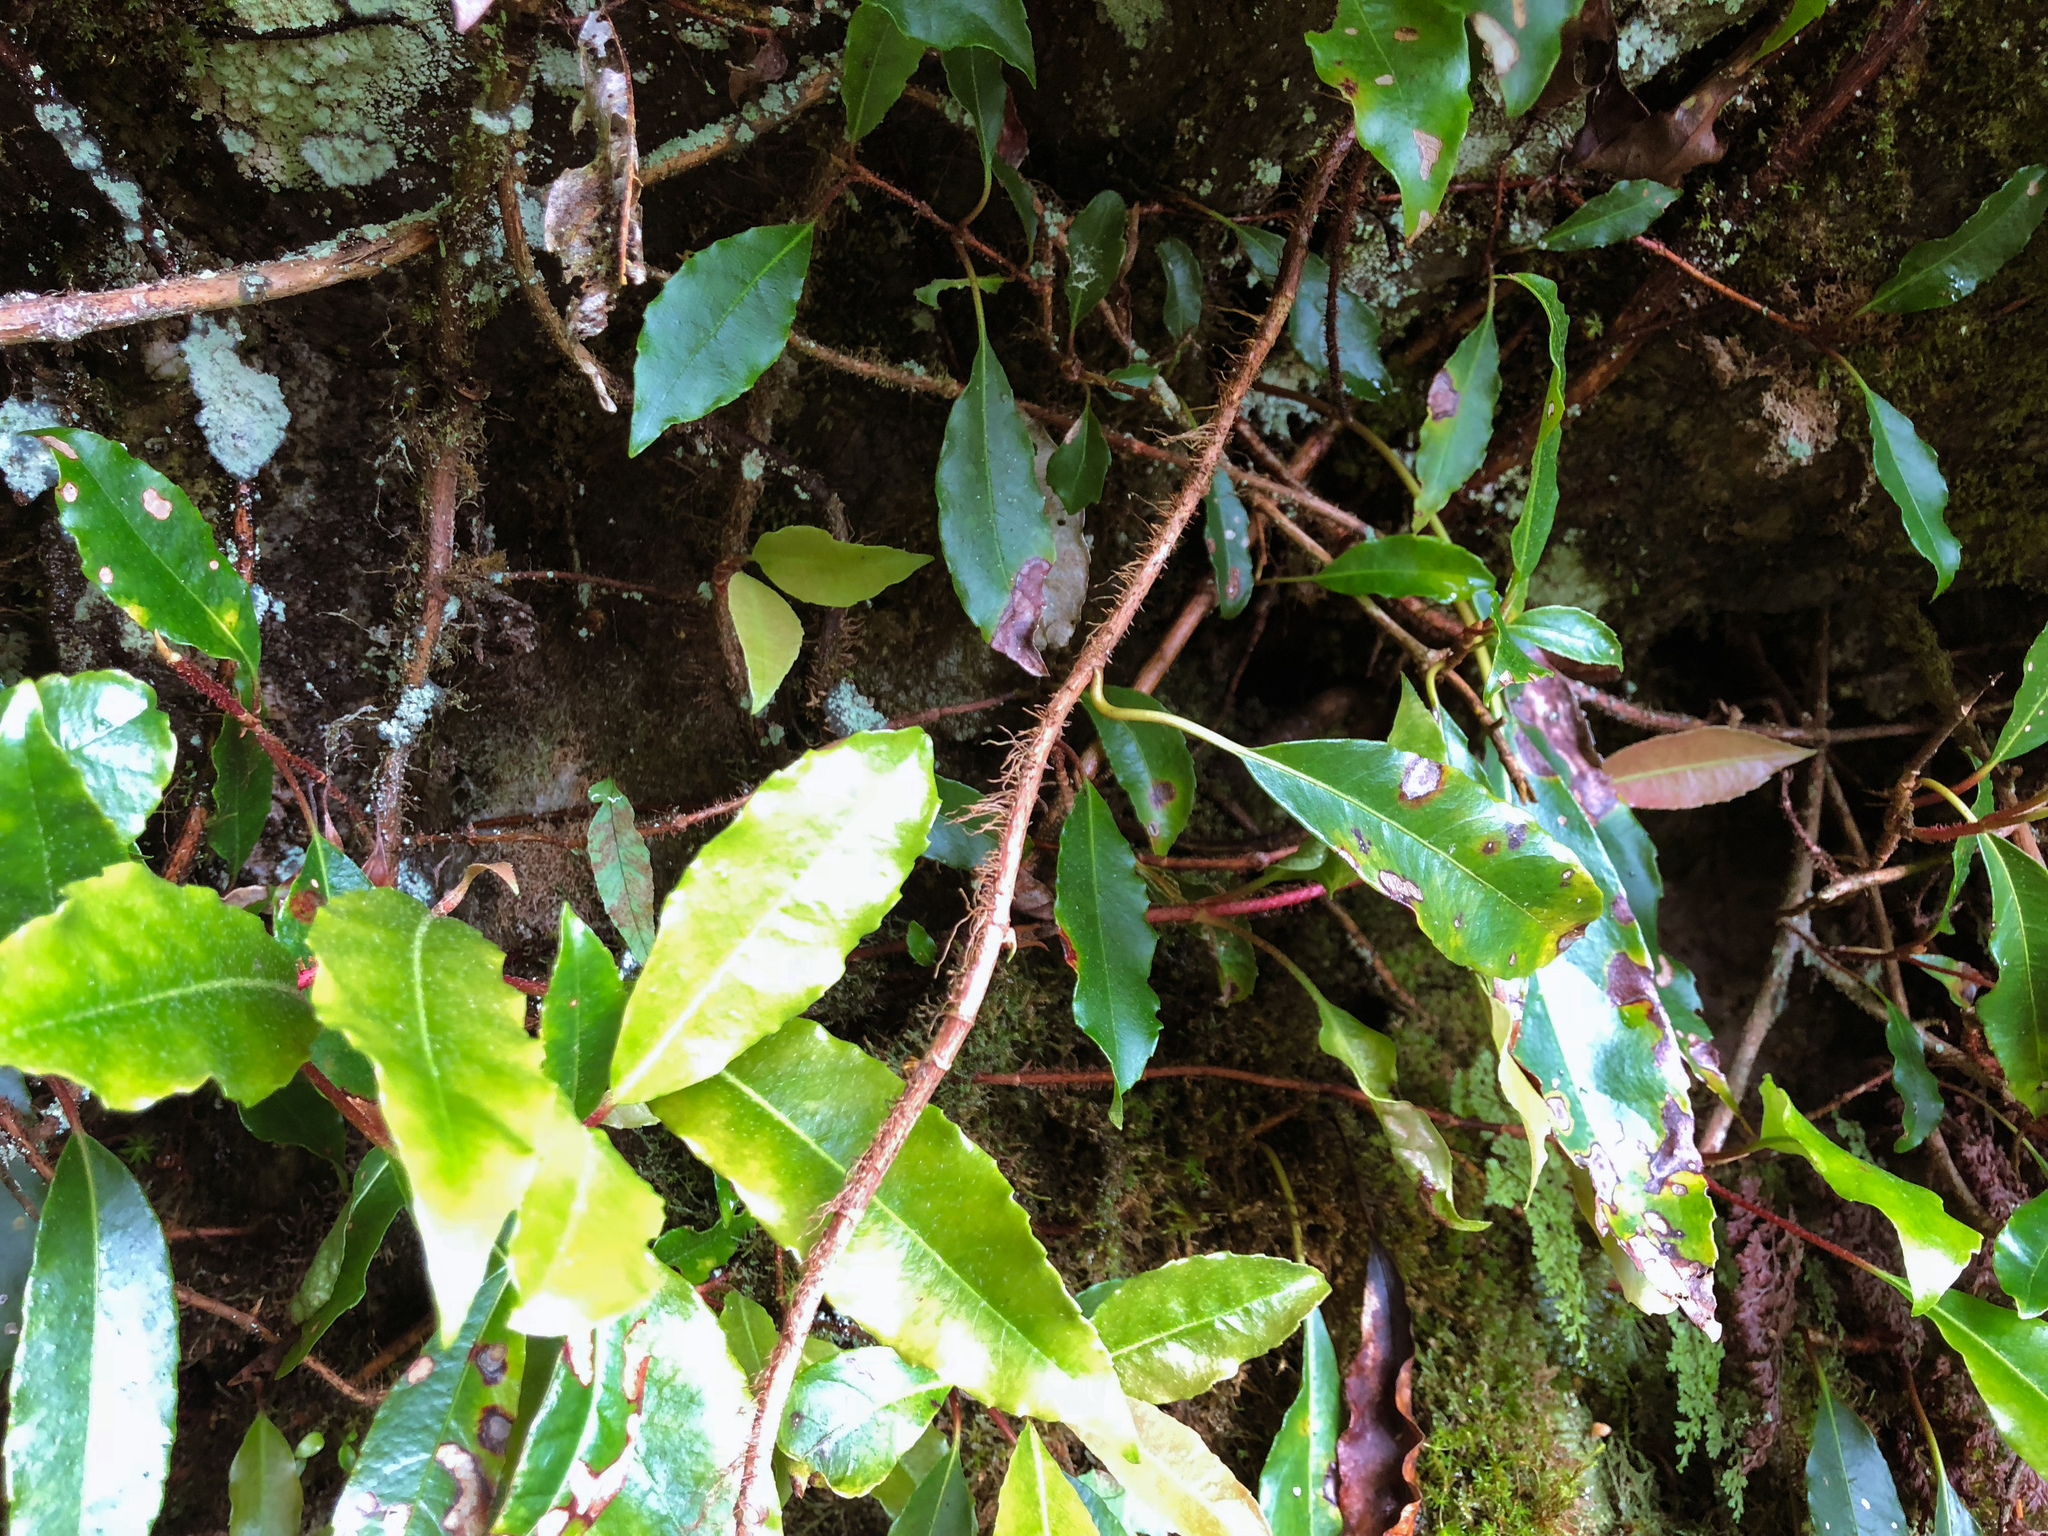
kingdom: Plantae
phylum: Tracheophyta
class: Magnoliopsida
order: Cornales
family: Hydrangeaceae
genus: Hydrangea
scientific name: Hydrangea integrifolia
